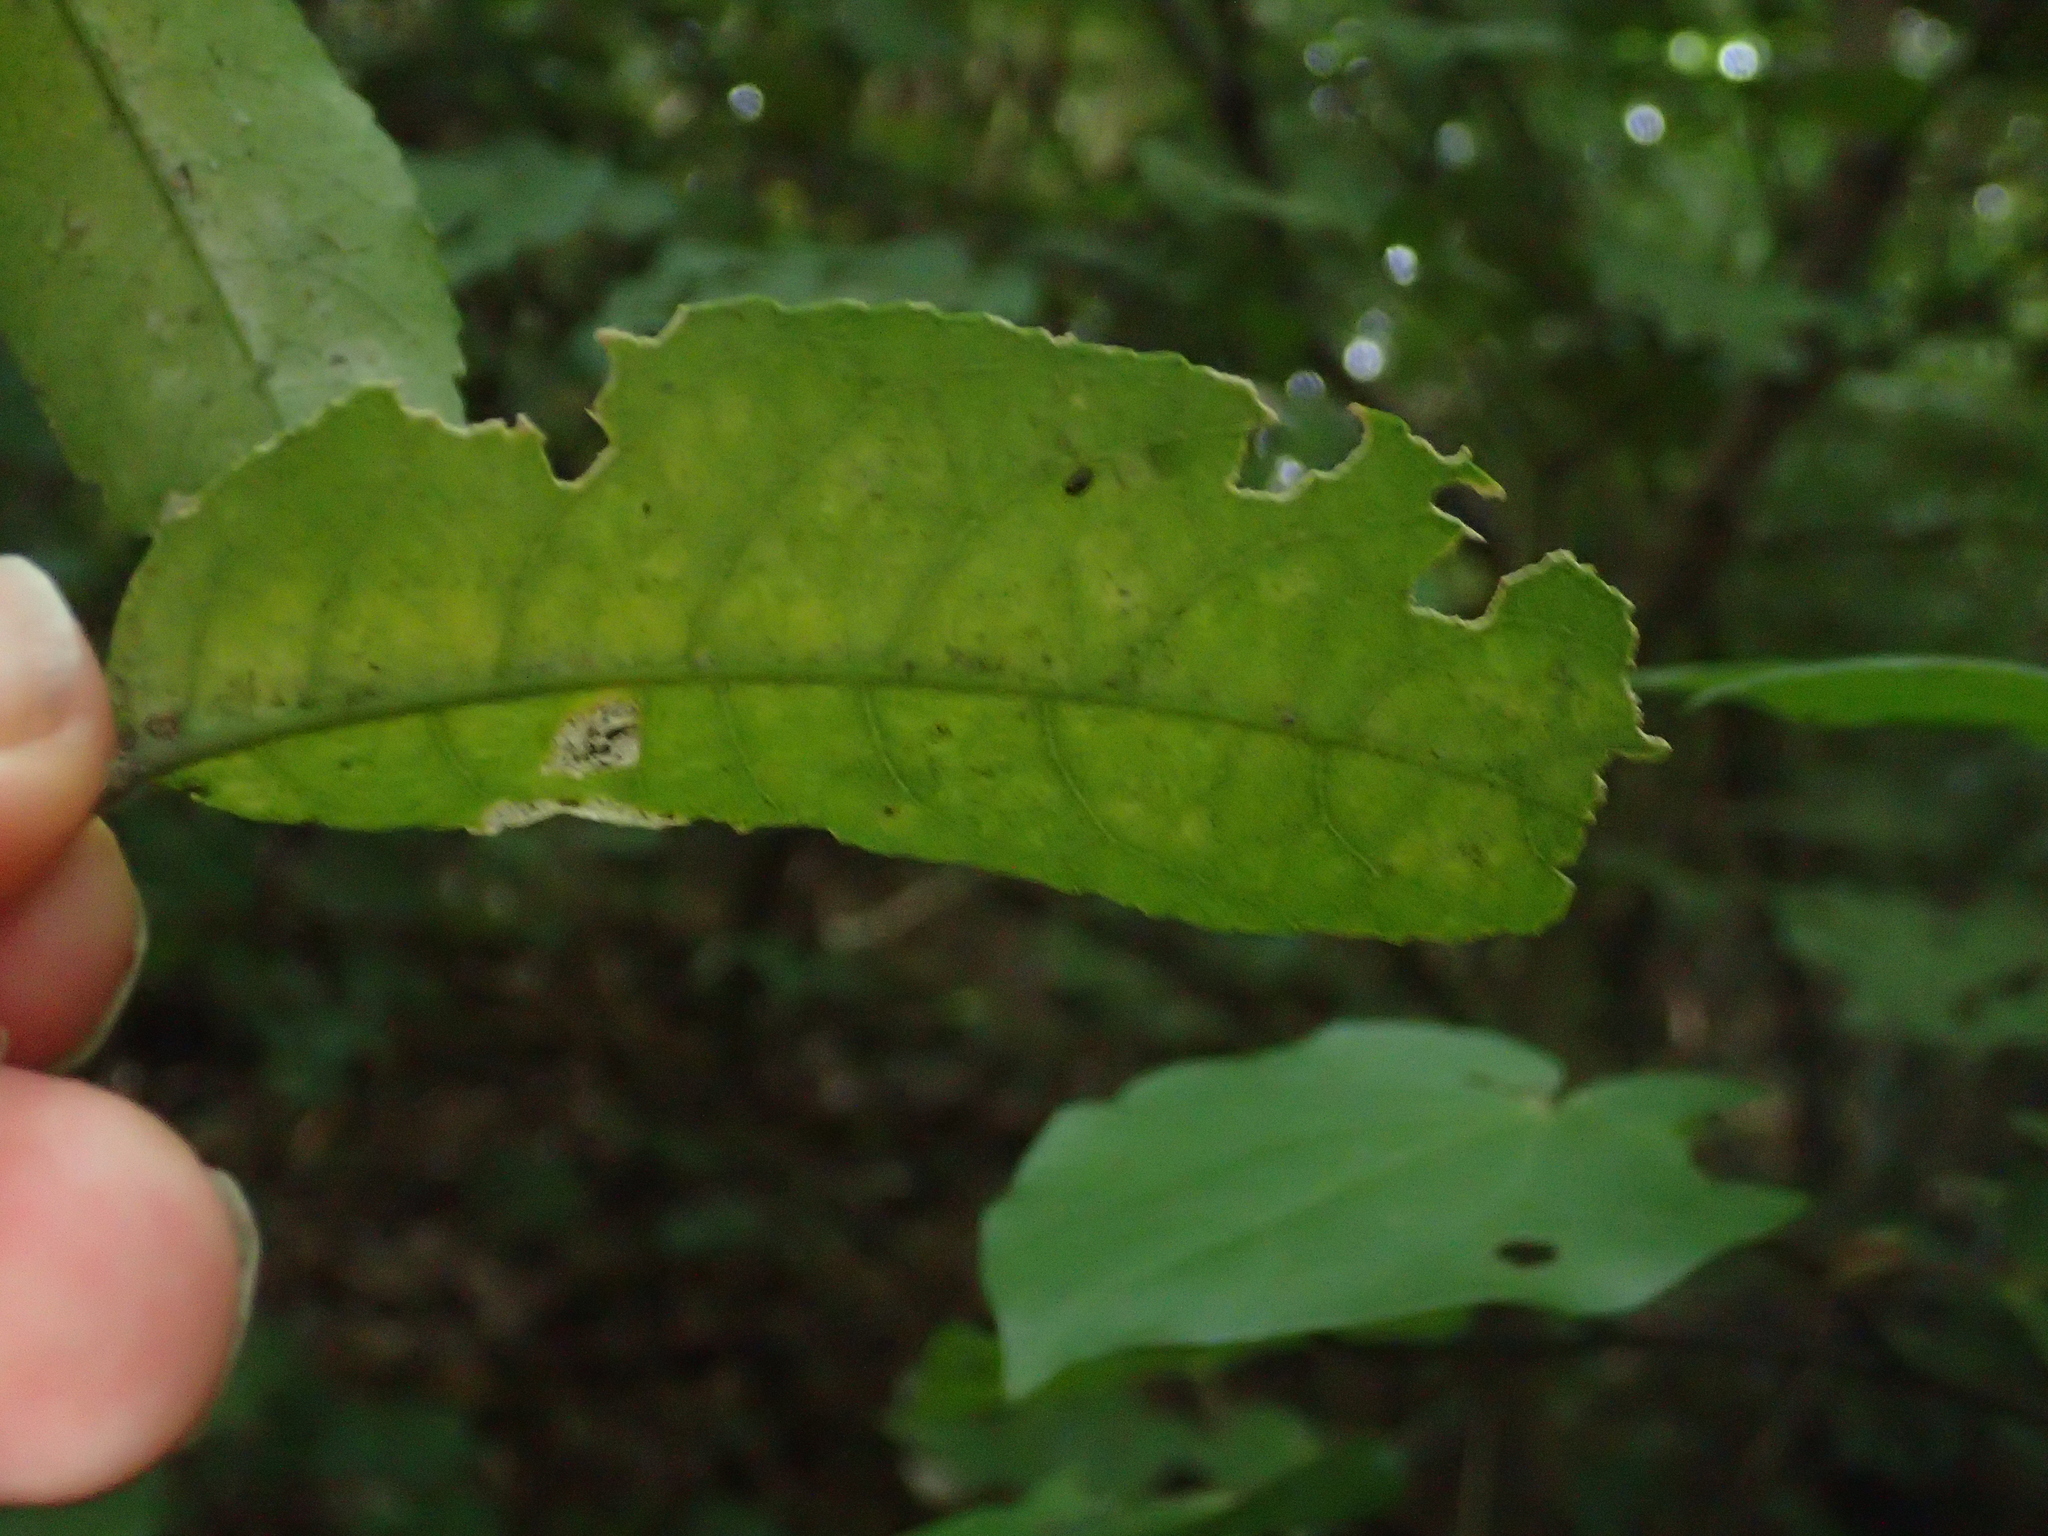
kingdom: Plantae
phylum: Tracheophyta
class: Magnoliopsida
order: Malpighiales
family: Violaceae
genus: Melicytus
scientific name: Melicytus ramiflorus
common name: Mahoe
